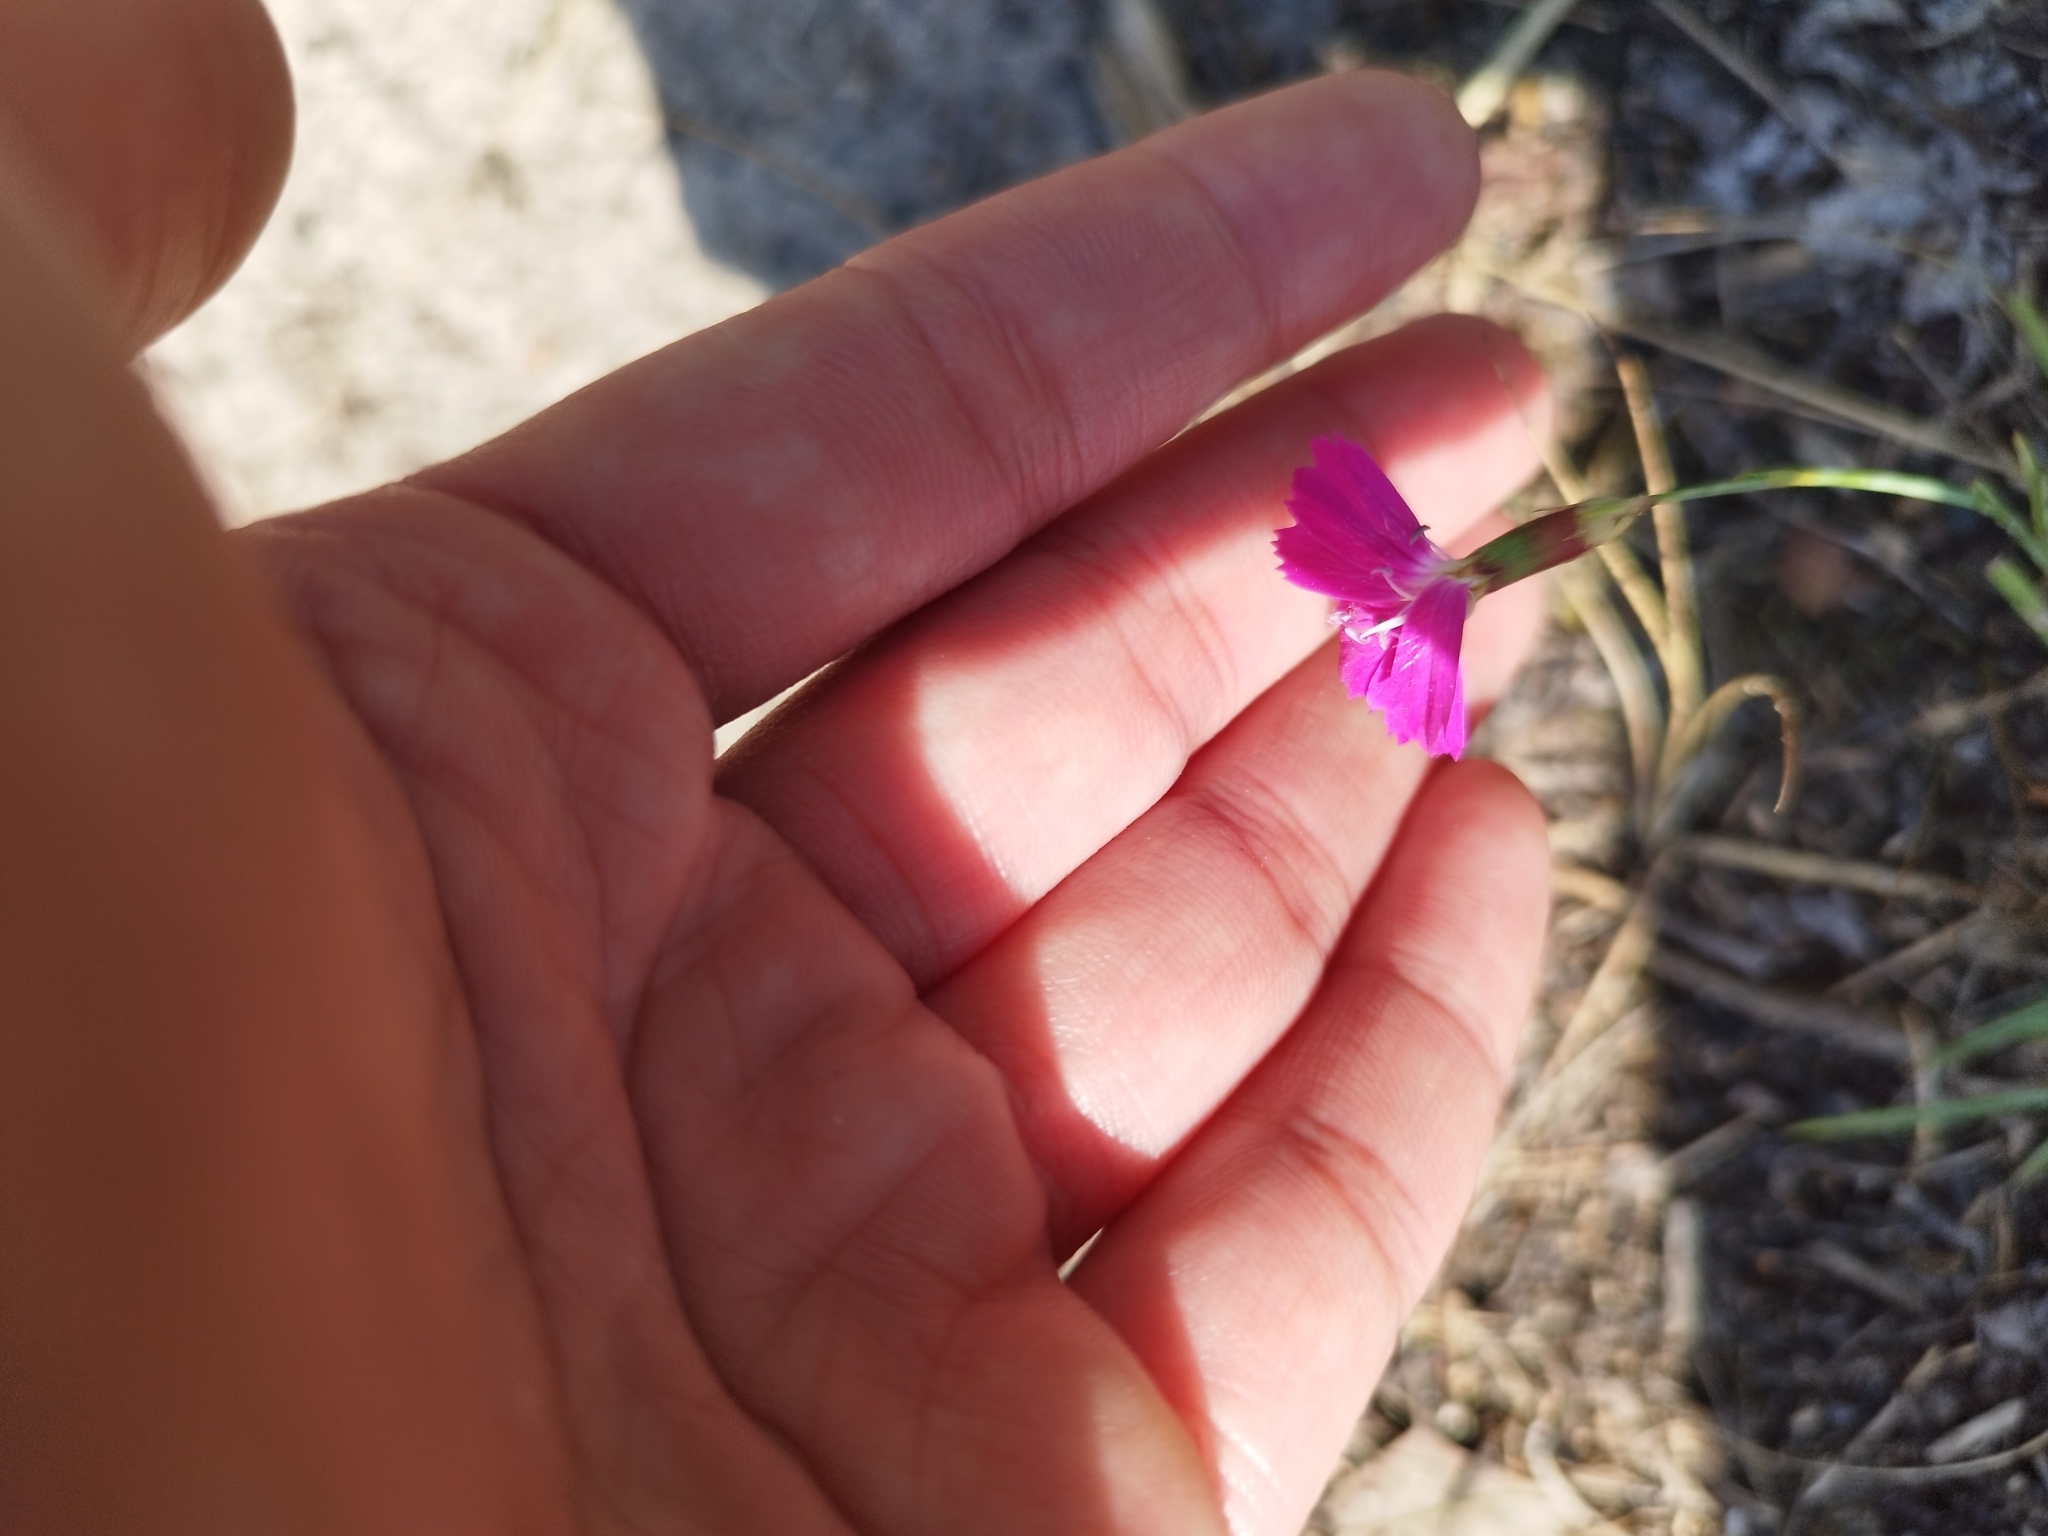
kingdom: Plantae
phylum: Tracheophyta
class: Magnoliopsida
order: Caryophyllales
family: Caryophyllaceae
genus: Dianthus
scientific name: Dianthus deltoides
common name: Maiden pink
